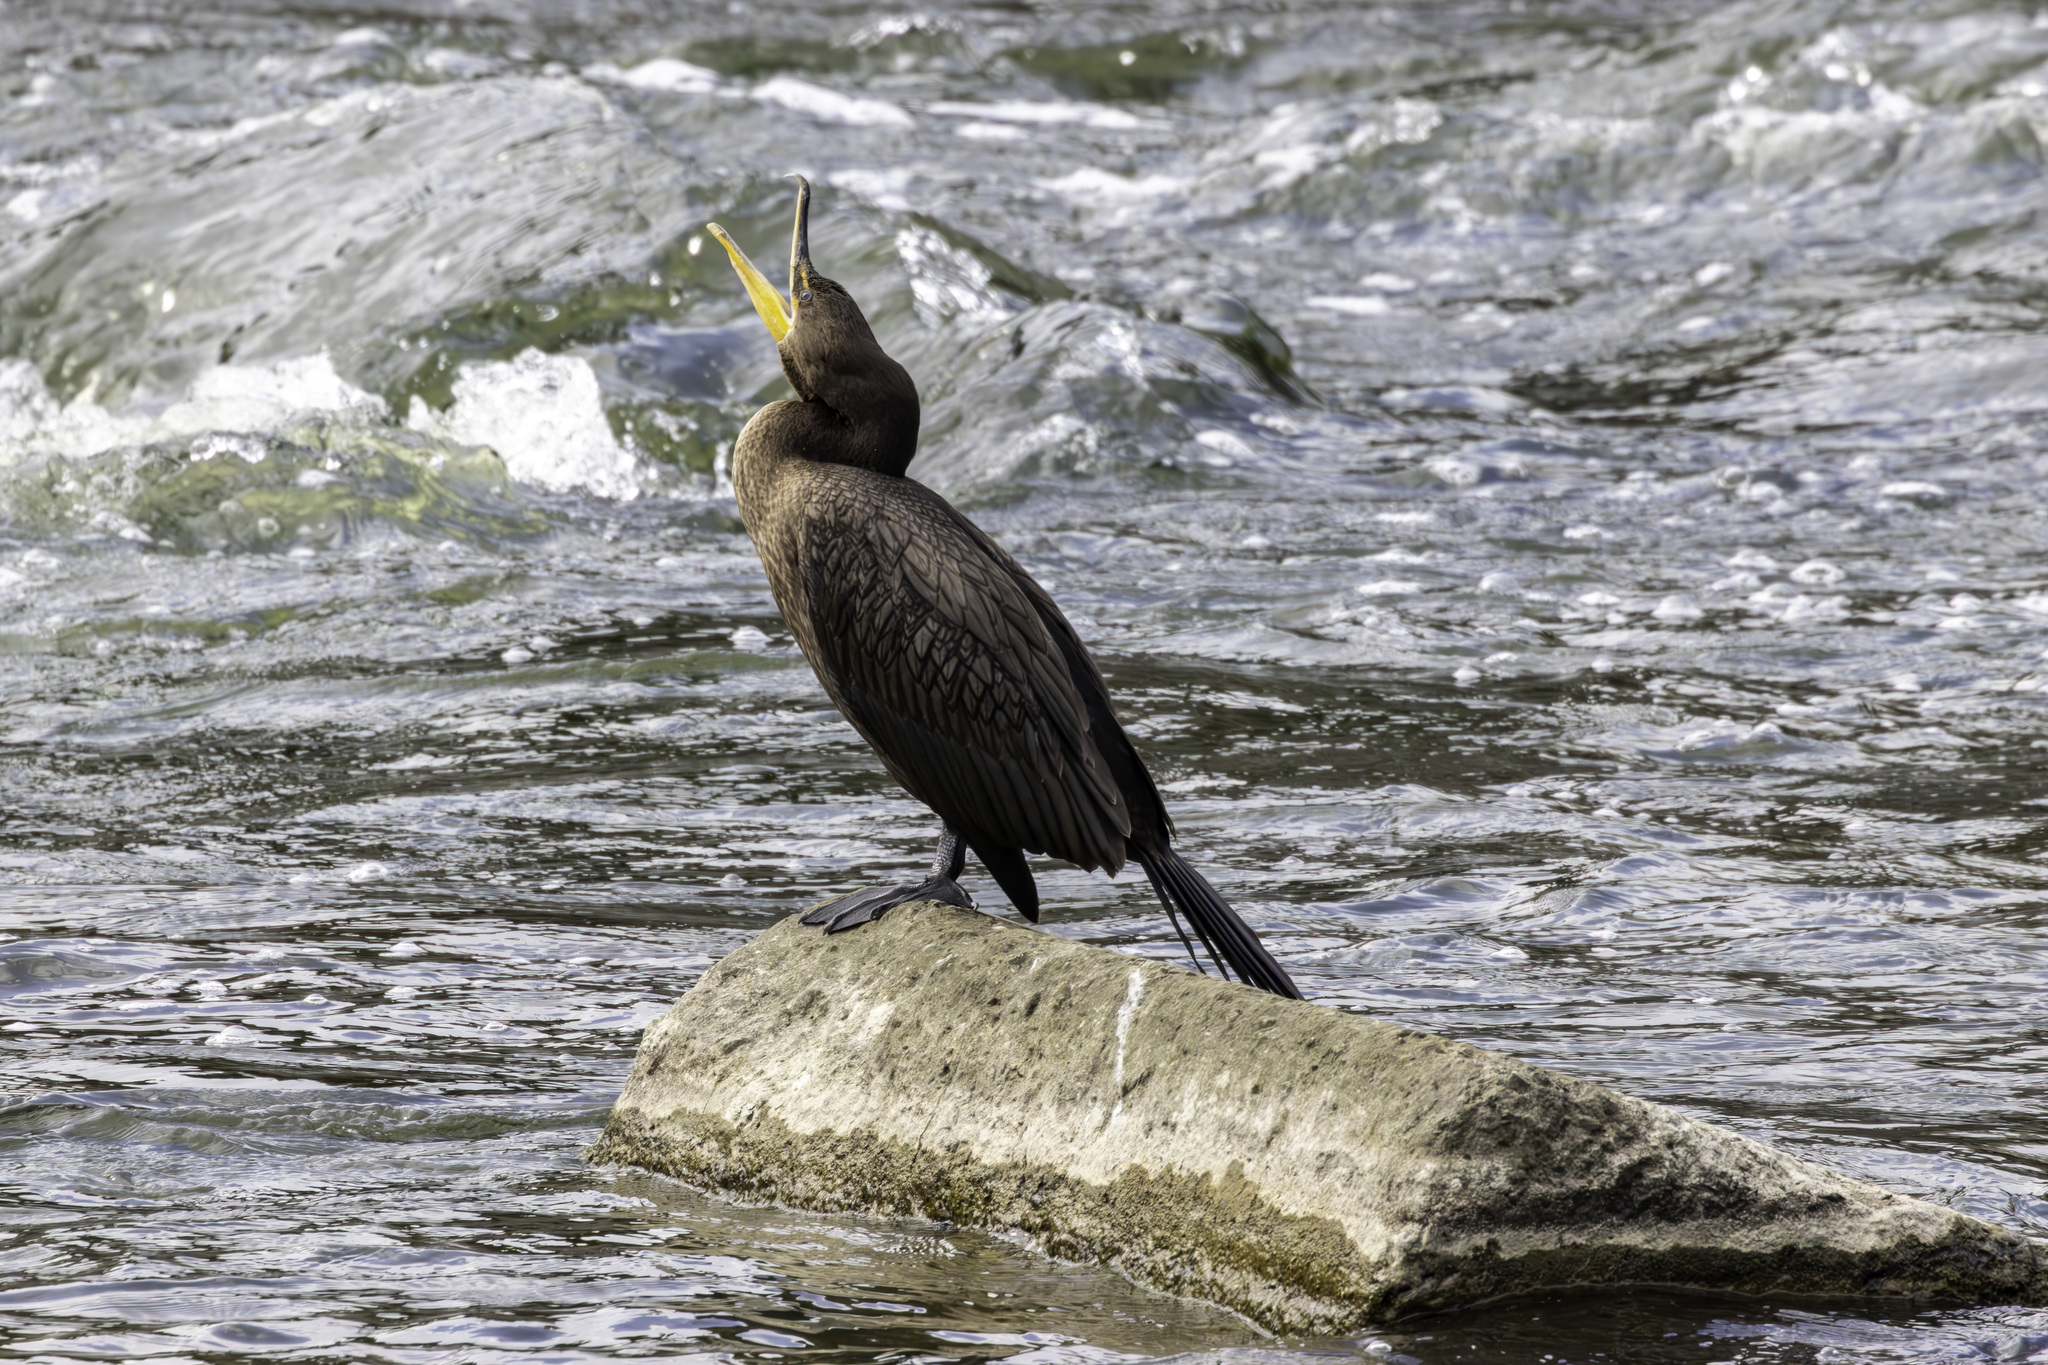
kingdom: Animalia
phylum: Chordata
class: Aves
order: Suliformes
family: Phalacrocoracidae
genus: Phalacrocorax
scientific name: Phalacrocorax auritus
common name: Double-crested cormorant
